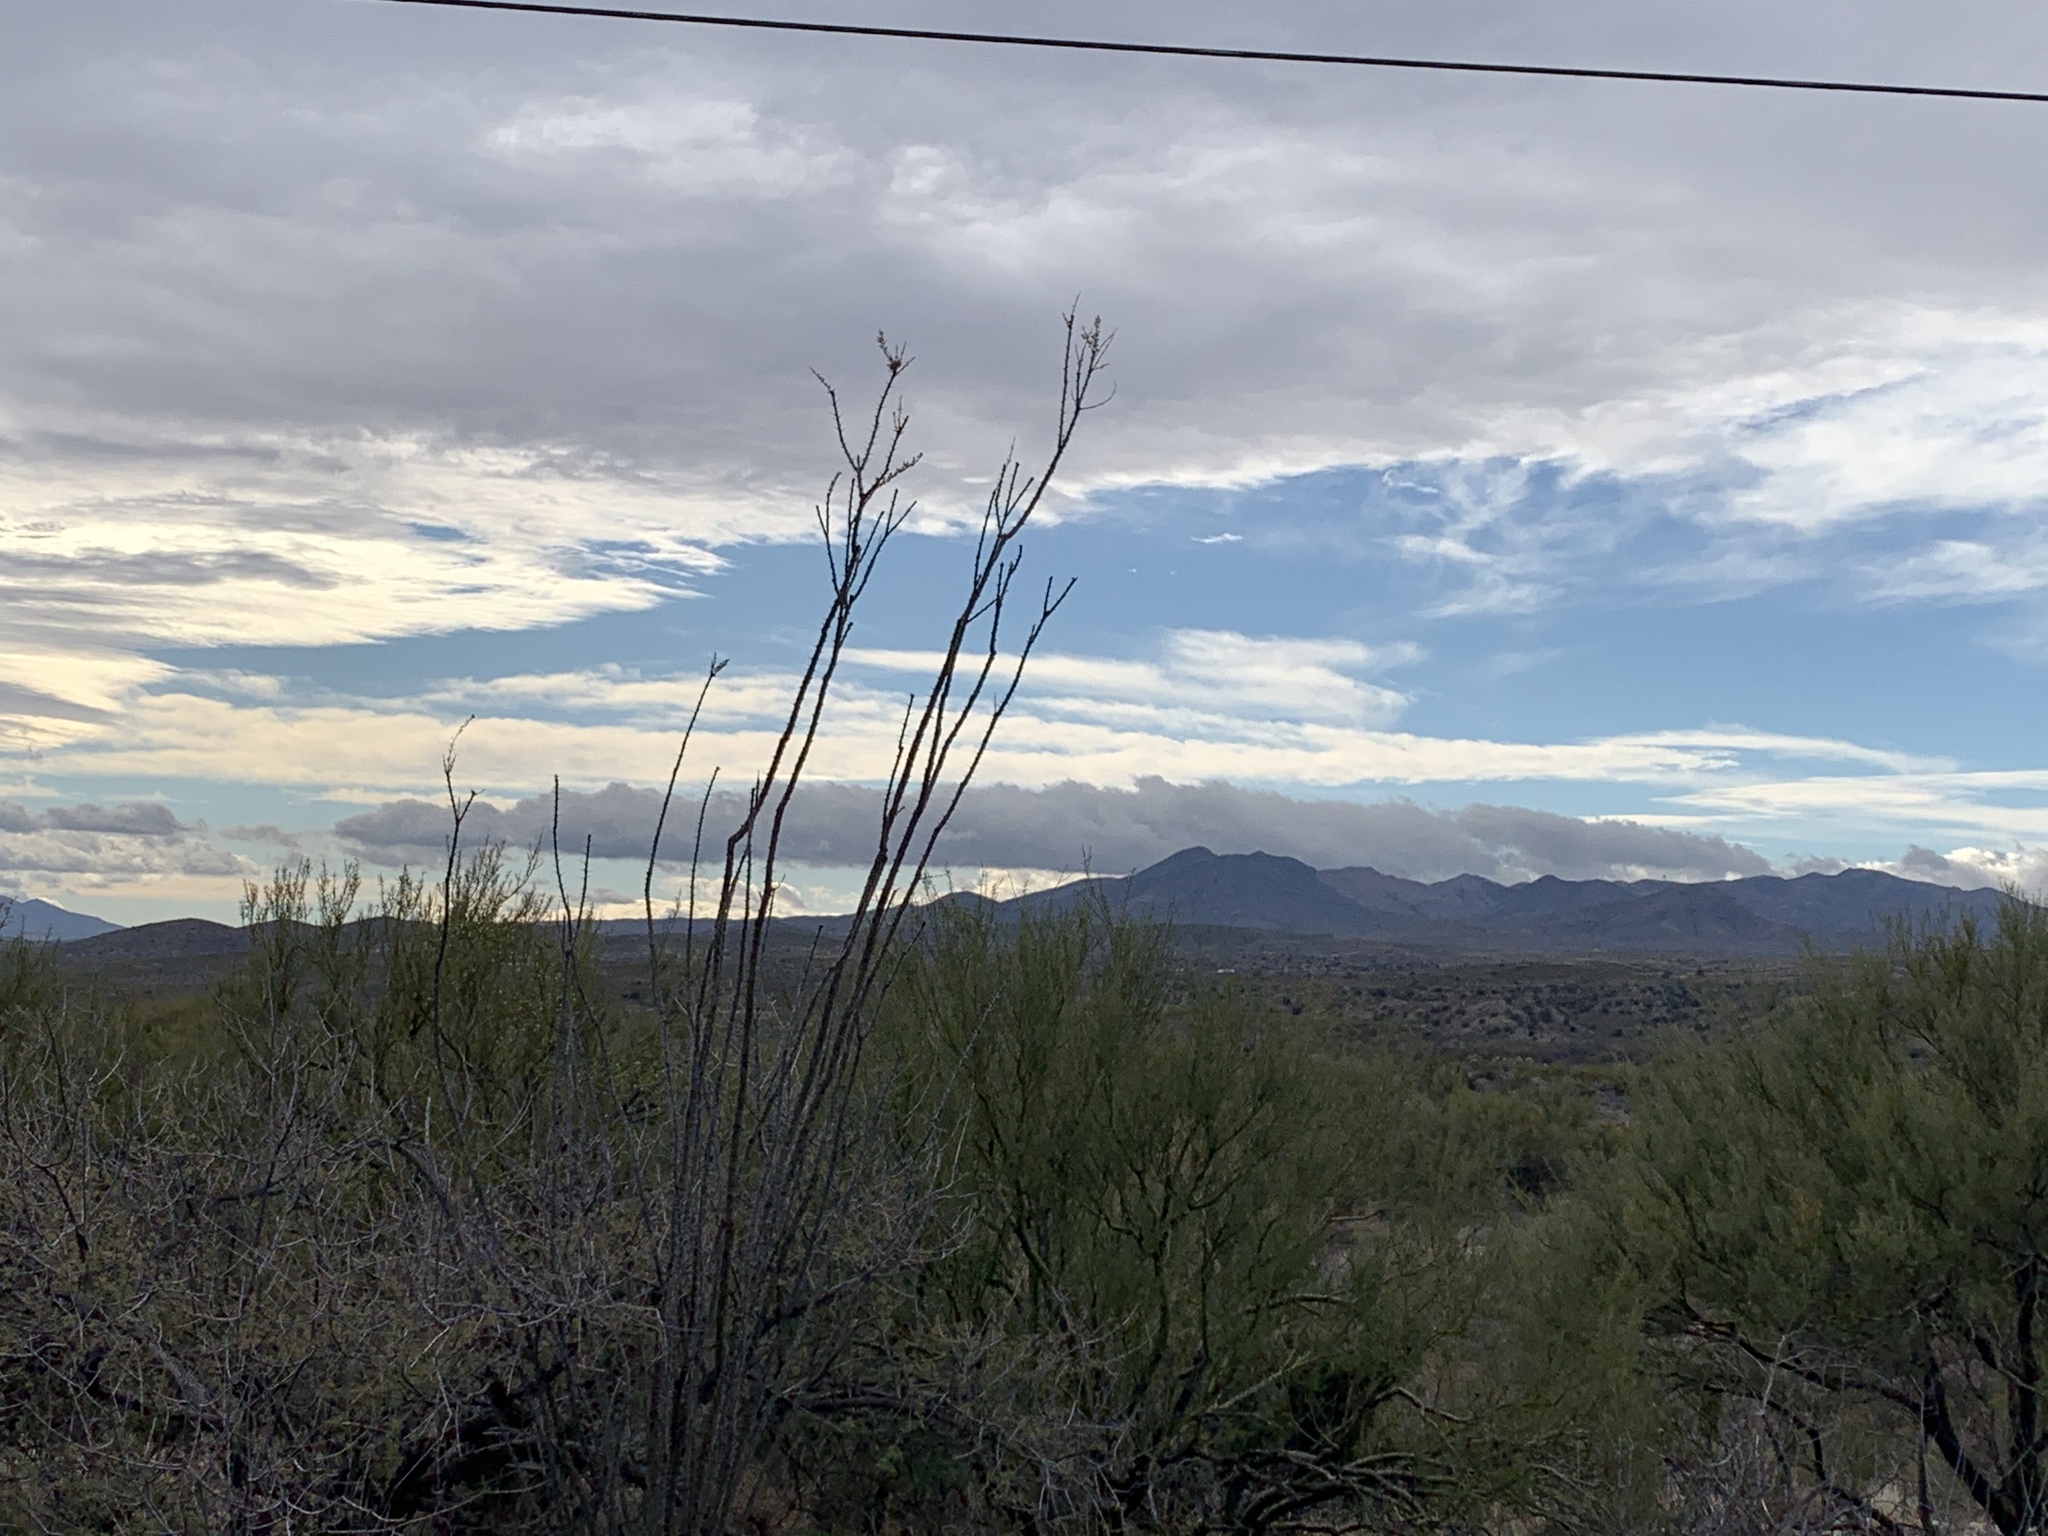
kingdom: Plantae
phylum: Tracheophyta
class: Magnoliopsida
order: Ericales
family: Fouquieriaceae
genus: Fouquieria
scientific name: Fouquieria splendens
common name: Vine-cactus
